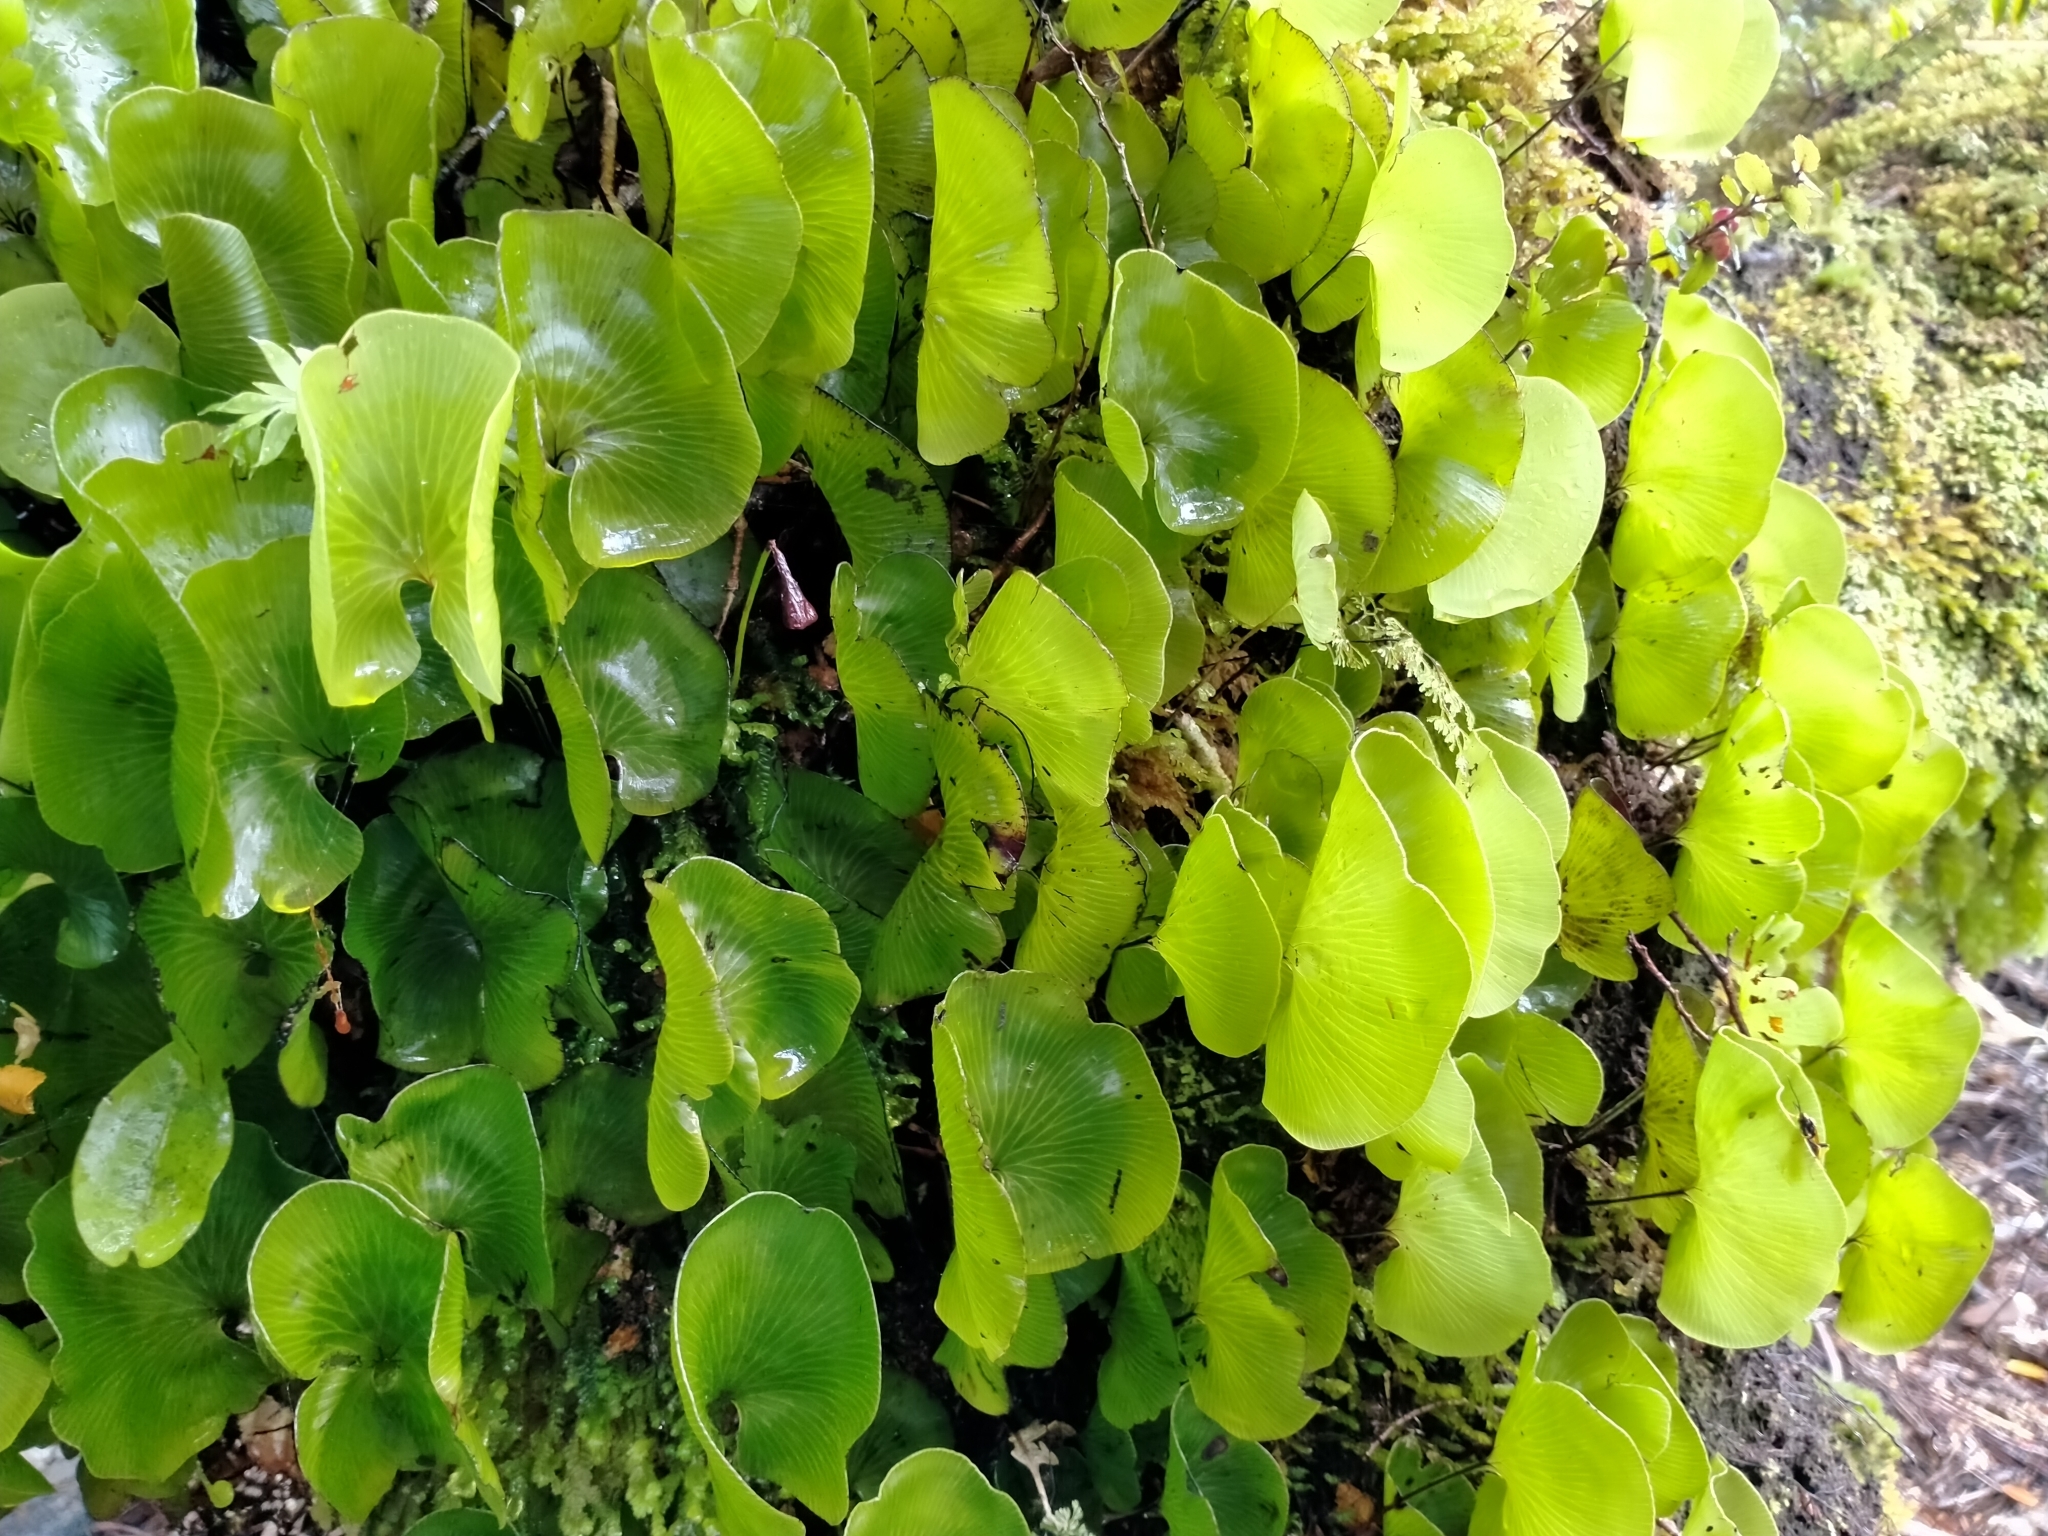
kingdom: Plantae
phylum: Tracheophyta
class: Polypodiopsida
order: Hymenophyllales
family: Hymenophyllaceae
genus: Hymenophyllum
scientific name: Hymenophyllum nephrophyllum
